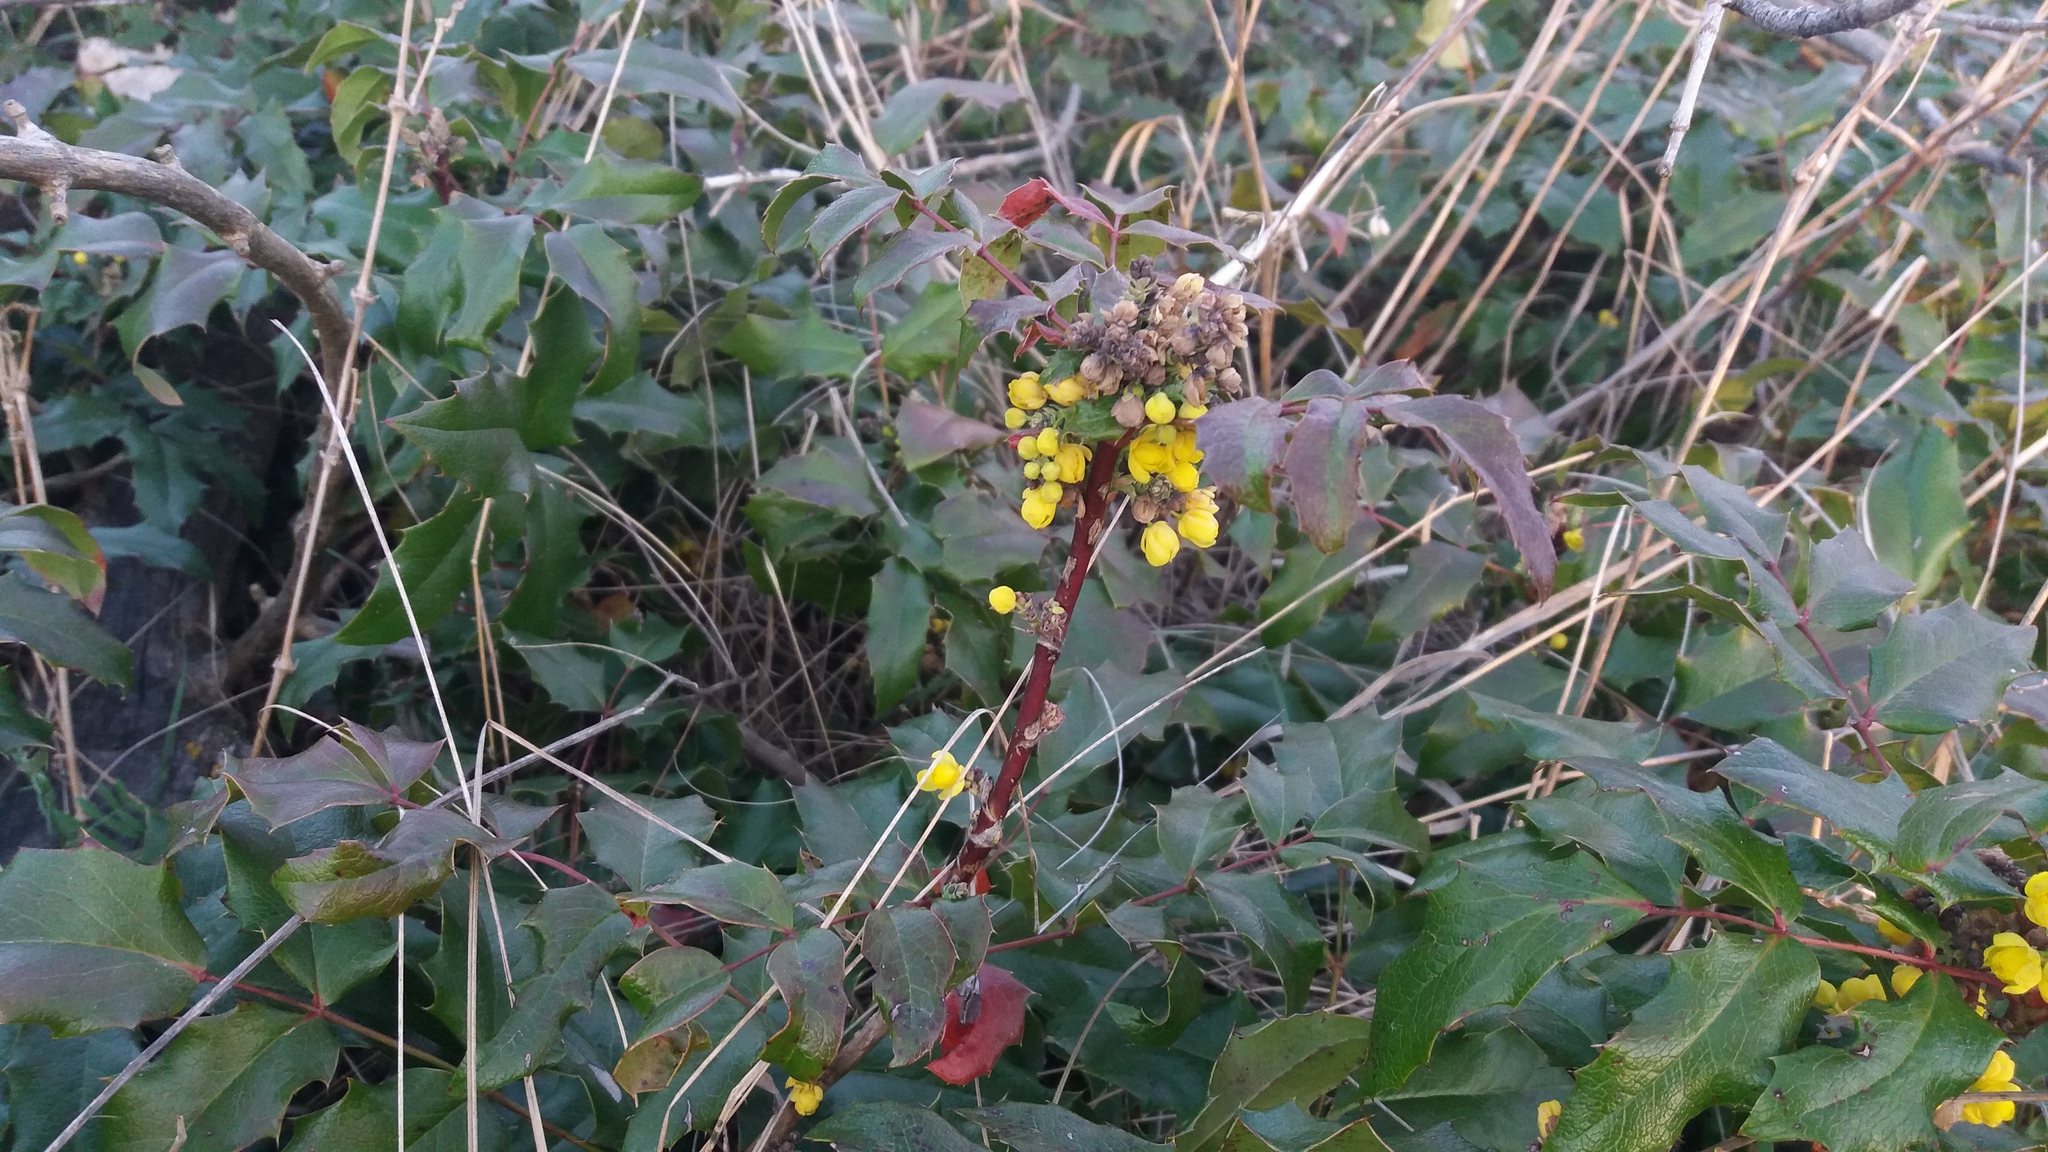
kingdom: Plantae
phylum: Tracheophyta
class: Magnoliopsida
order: Ranunculales
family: Berberidaceae
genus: Mahonia
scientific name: Mahonia aquifolium
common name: Oregon-grape
